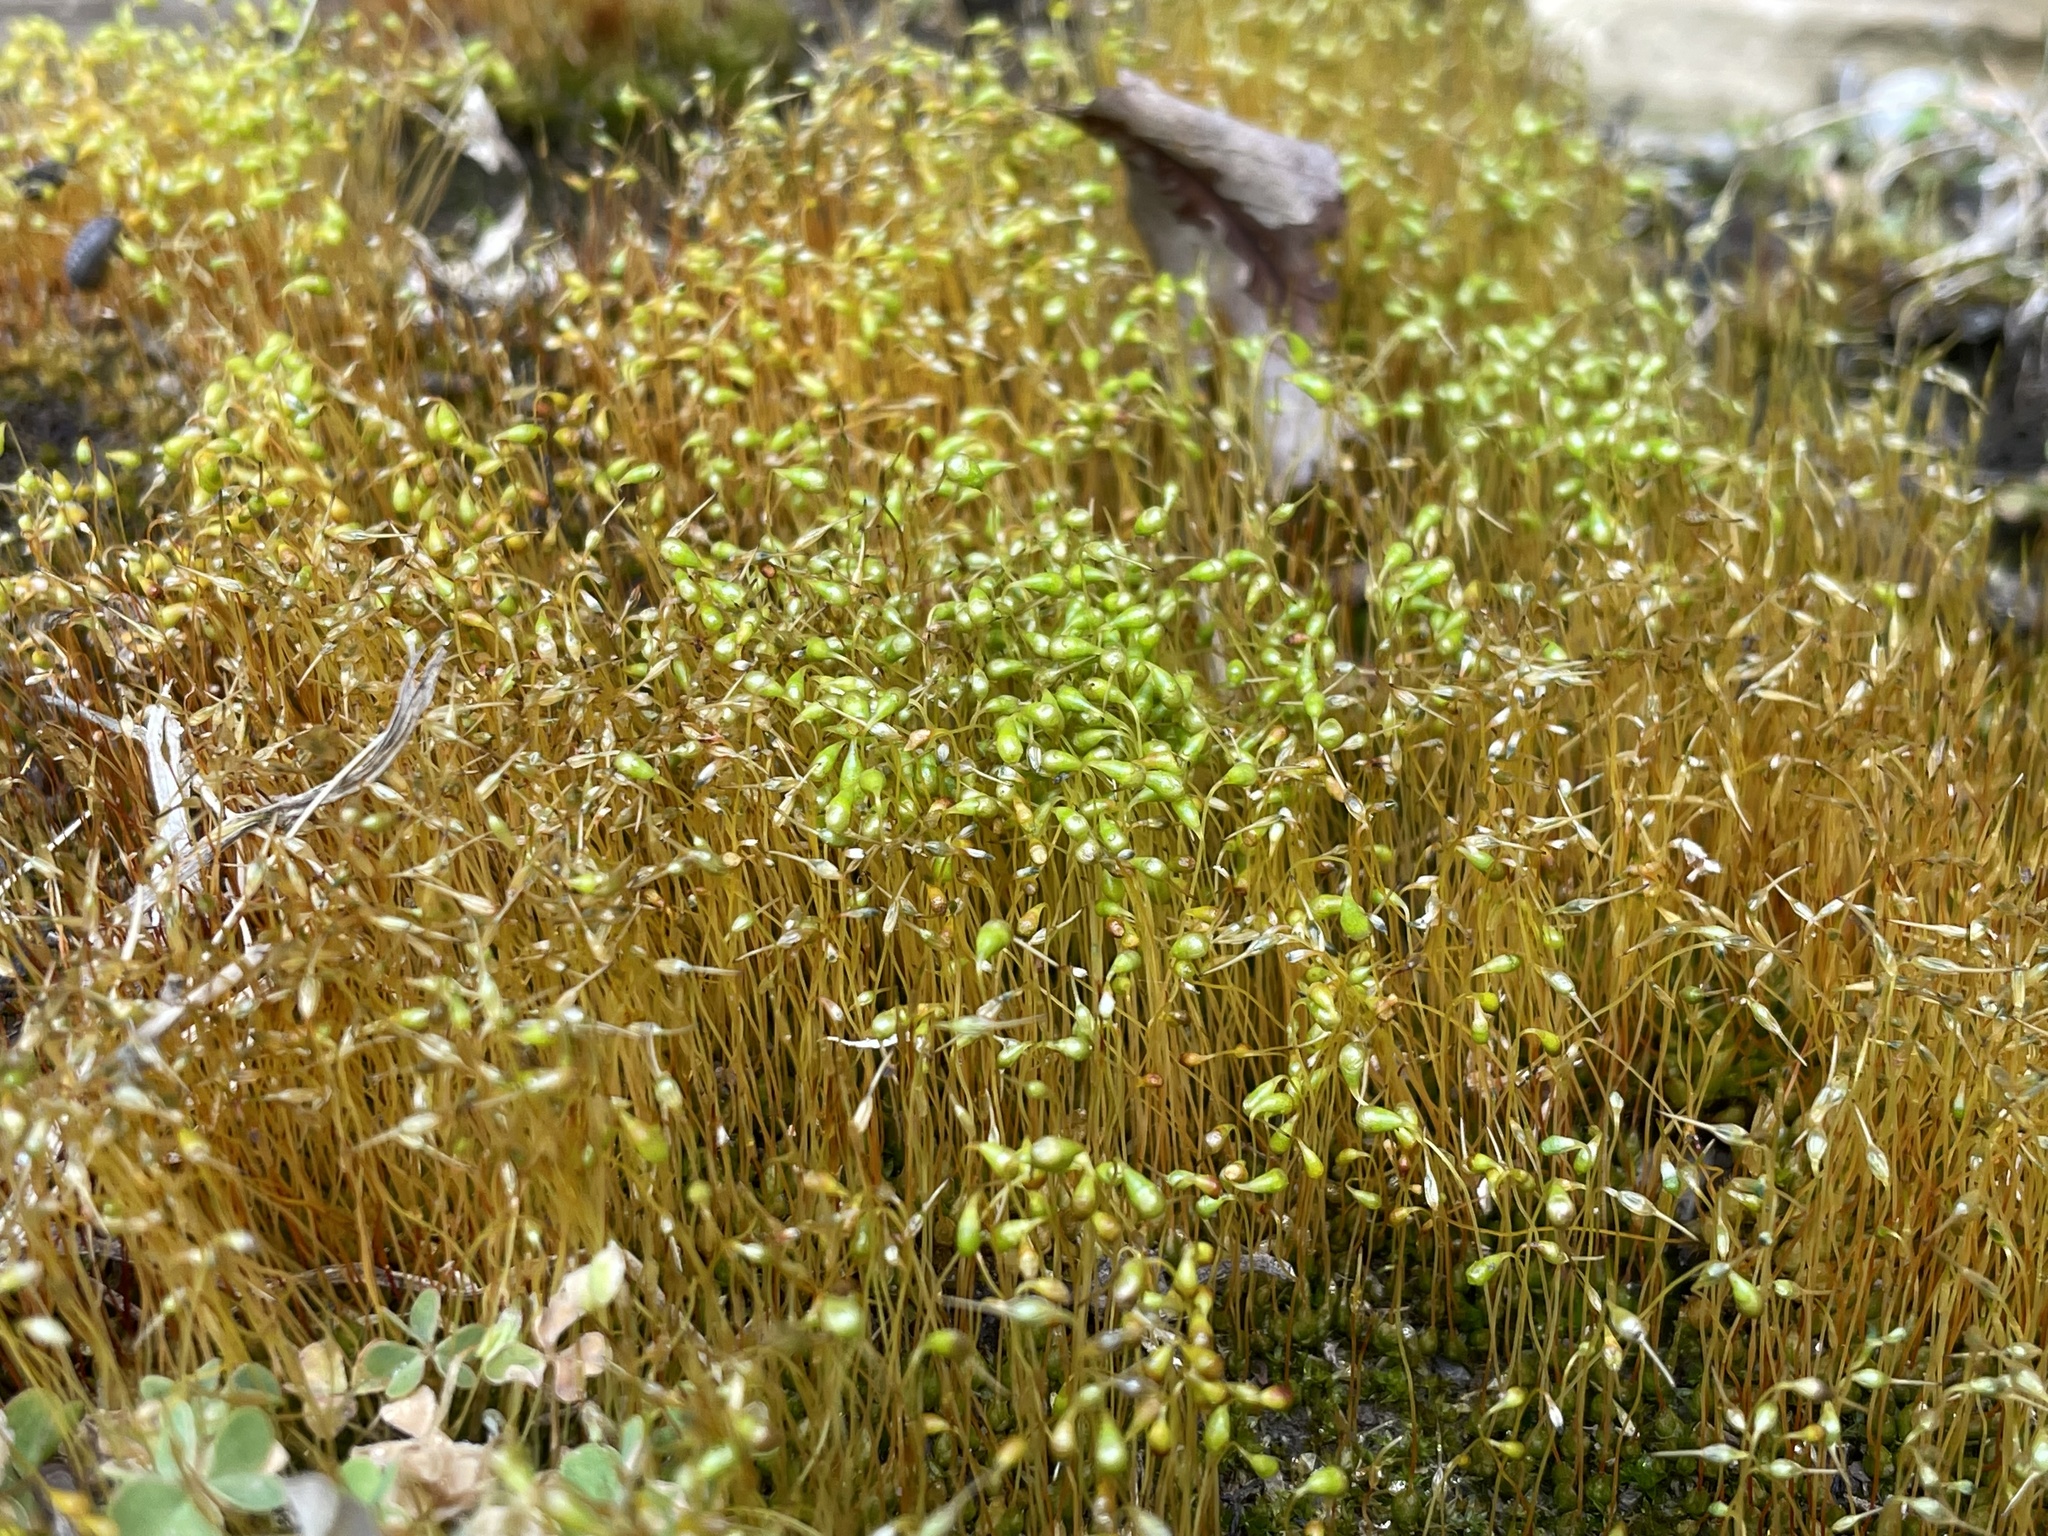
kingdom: Plantae
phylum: Bryophyta
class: Bryopsida
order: Funariales
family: Funariaceae
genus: Funaria
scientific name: Funaria hygrometrica
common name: Common cord moss
